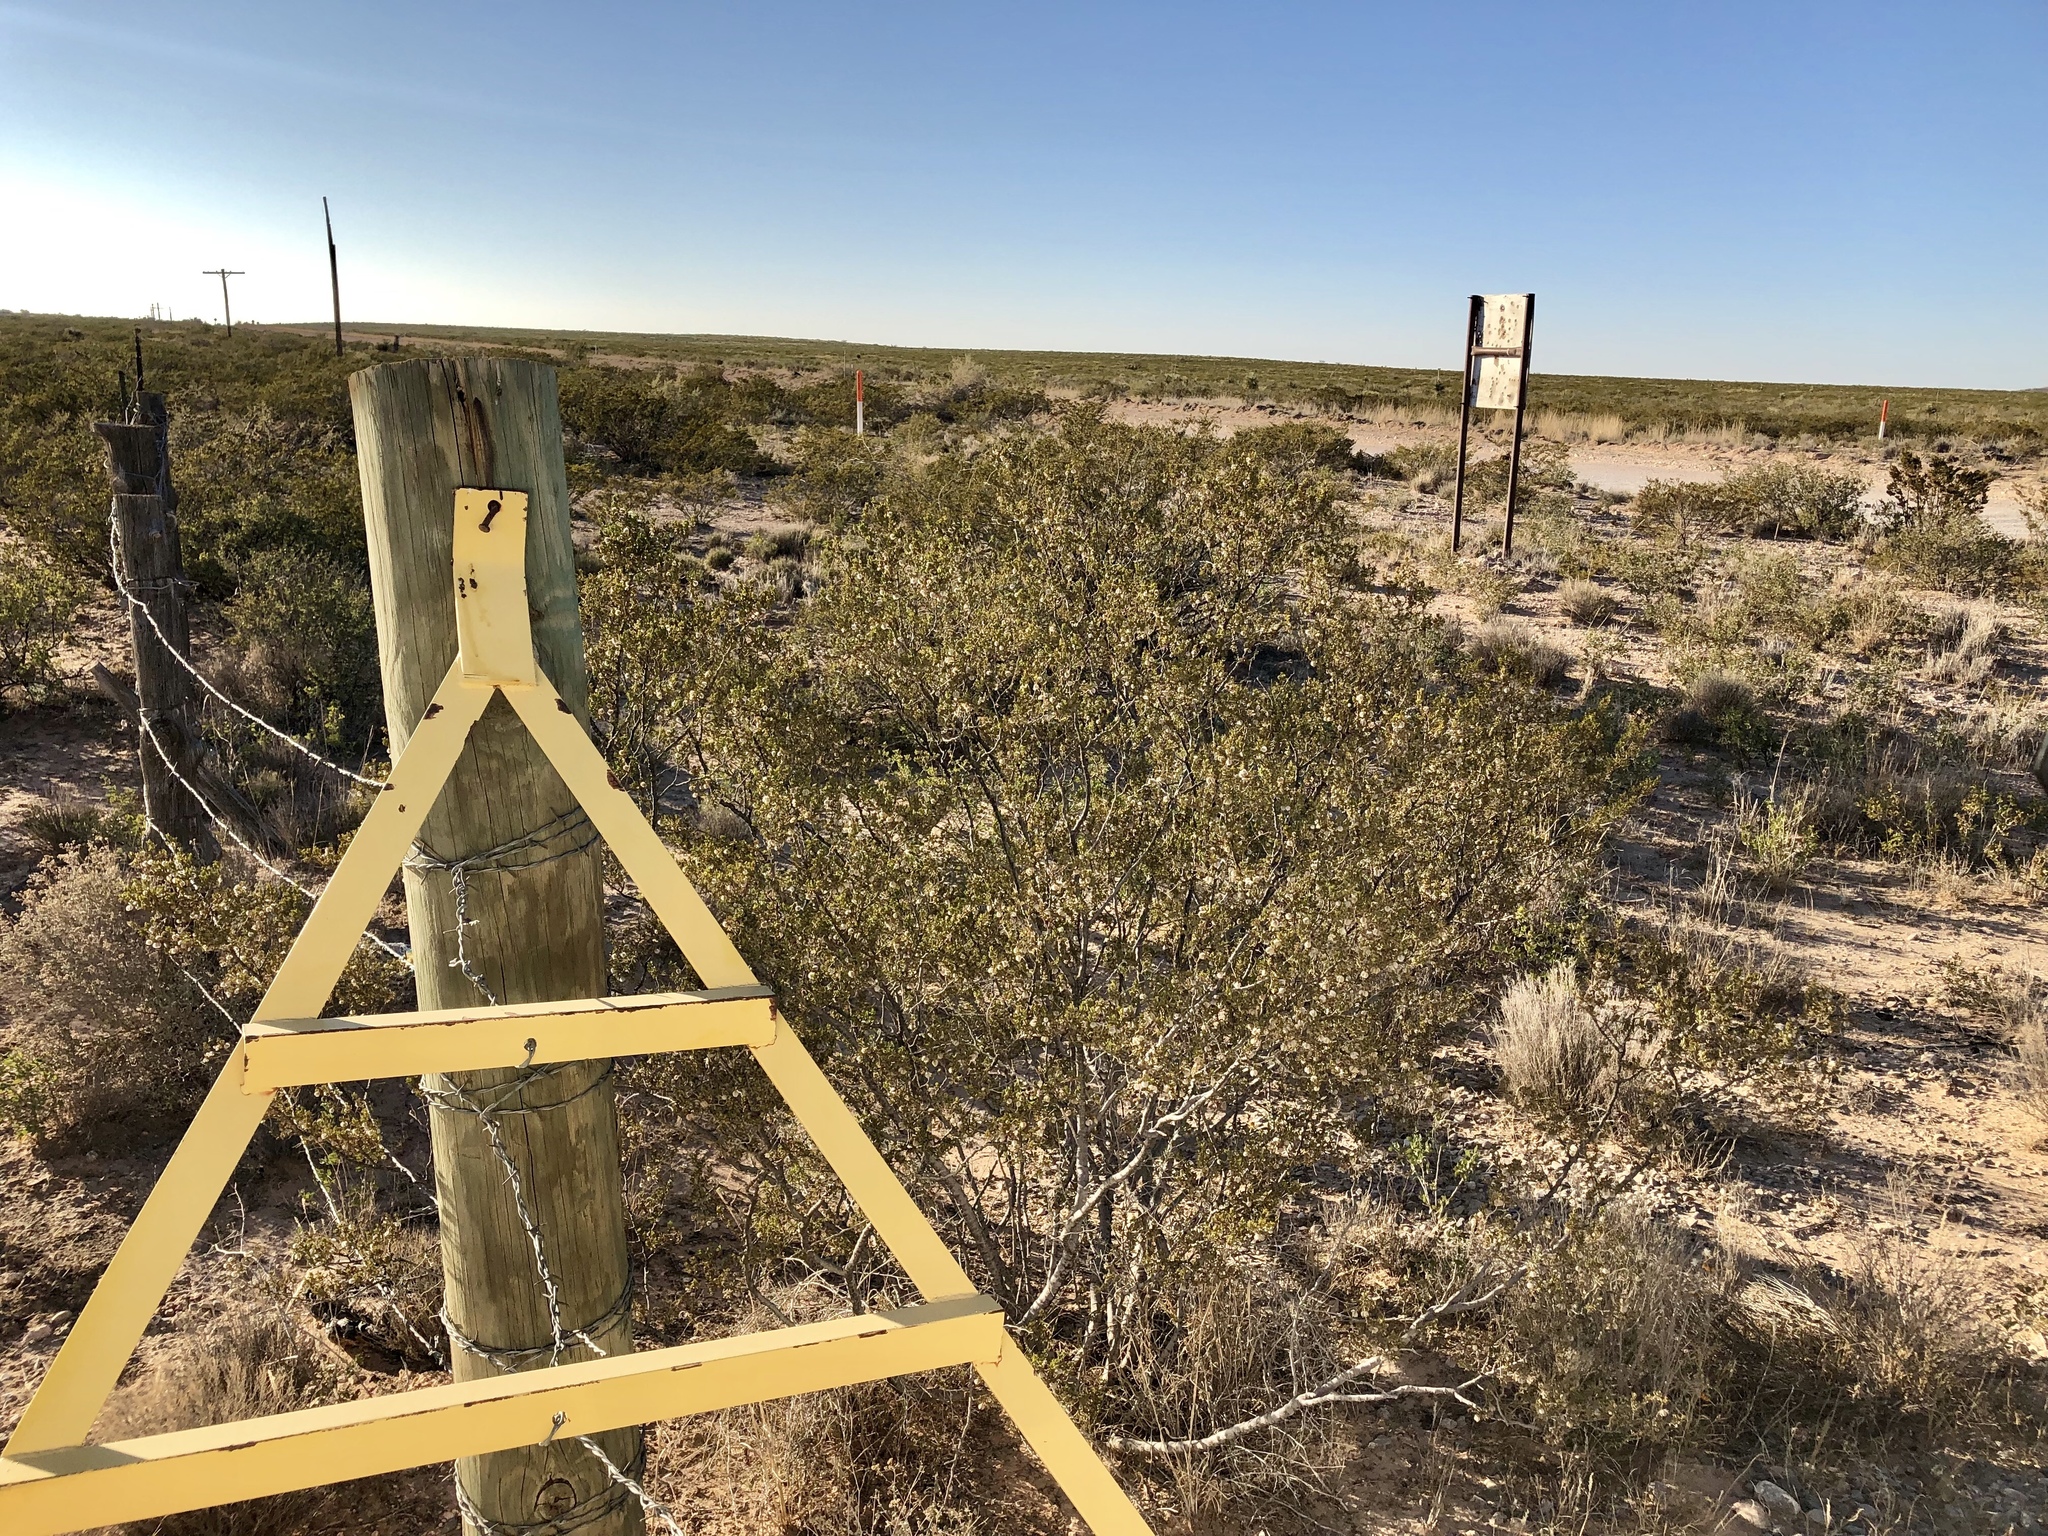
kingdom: Plantae
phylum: Tracheophyta
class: Magnoliopsida
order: Zygophyllales
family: Zygophyllaceae
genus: Larrea
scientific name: Larrea tridentata
